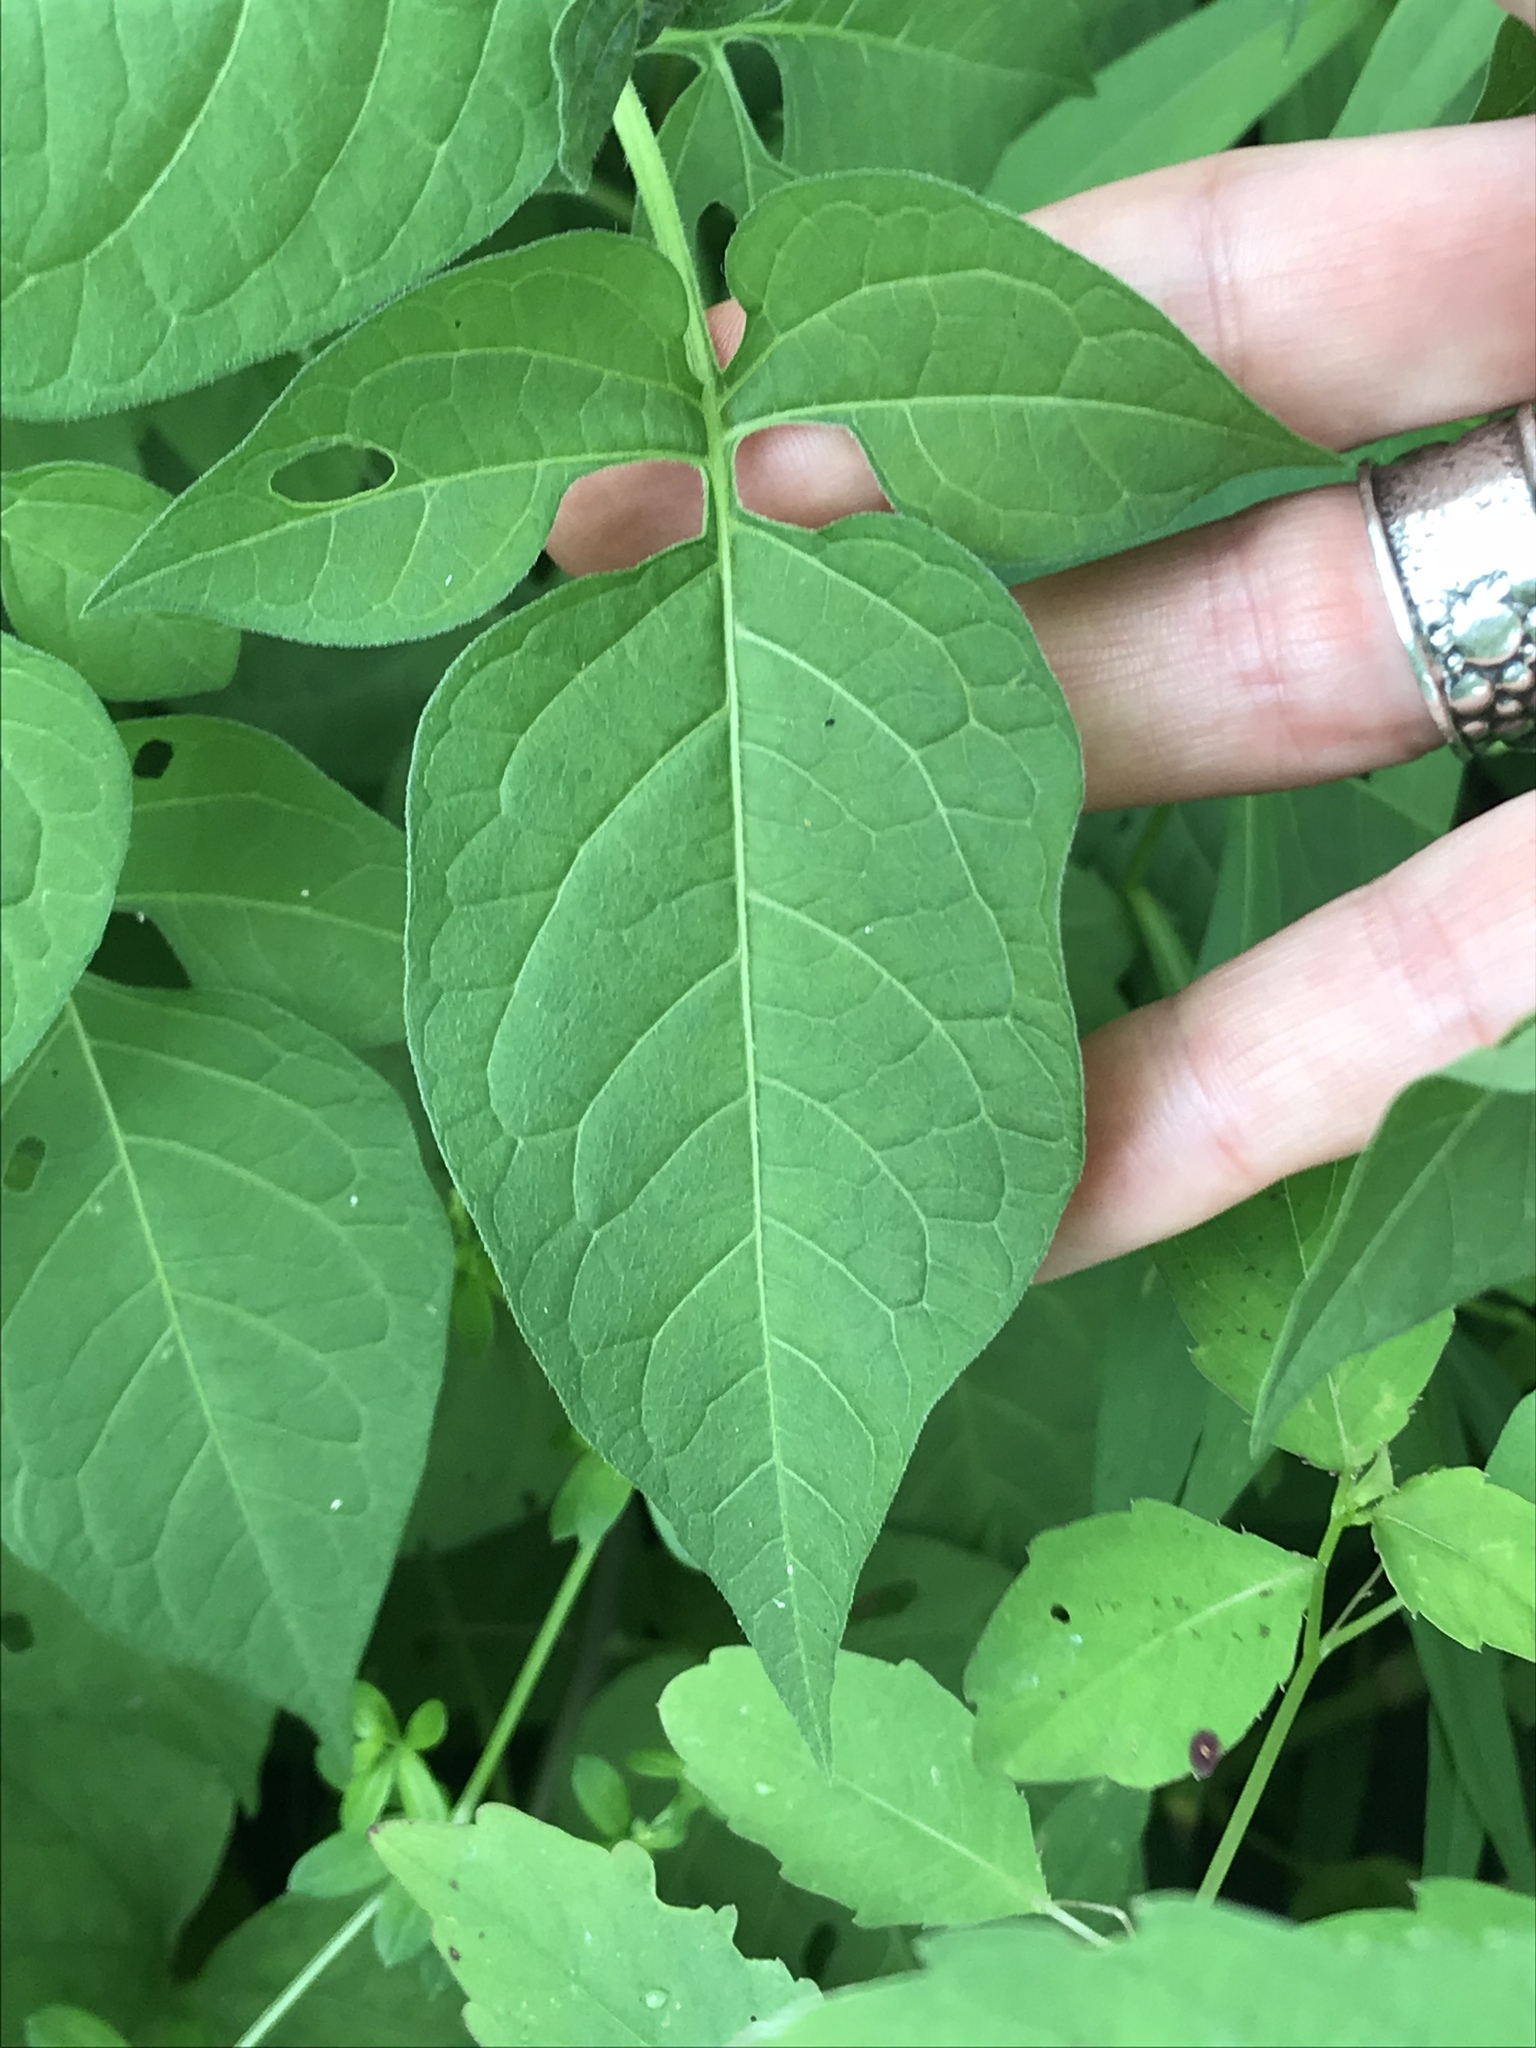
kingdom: Plantae
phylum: Tracheophyta
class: Magnoliopsida
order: Solanales
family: Solanaceae
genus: Solanum
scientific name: Solanum dulcamara
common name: Climbing nightshade
